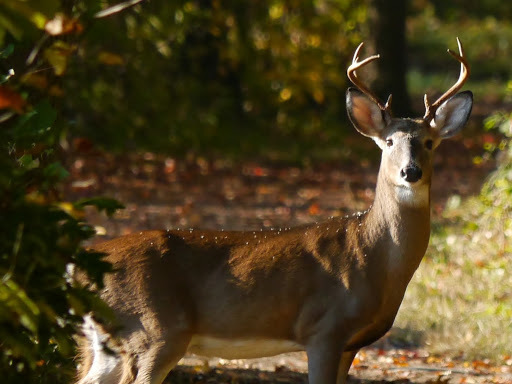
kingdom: Animalia
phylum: Chordata
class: Mammalia
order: Artiodactyla
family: Cervidae
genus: Odocoileus
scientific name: Odocoileus virginianus
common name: White-tailed deer
